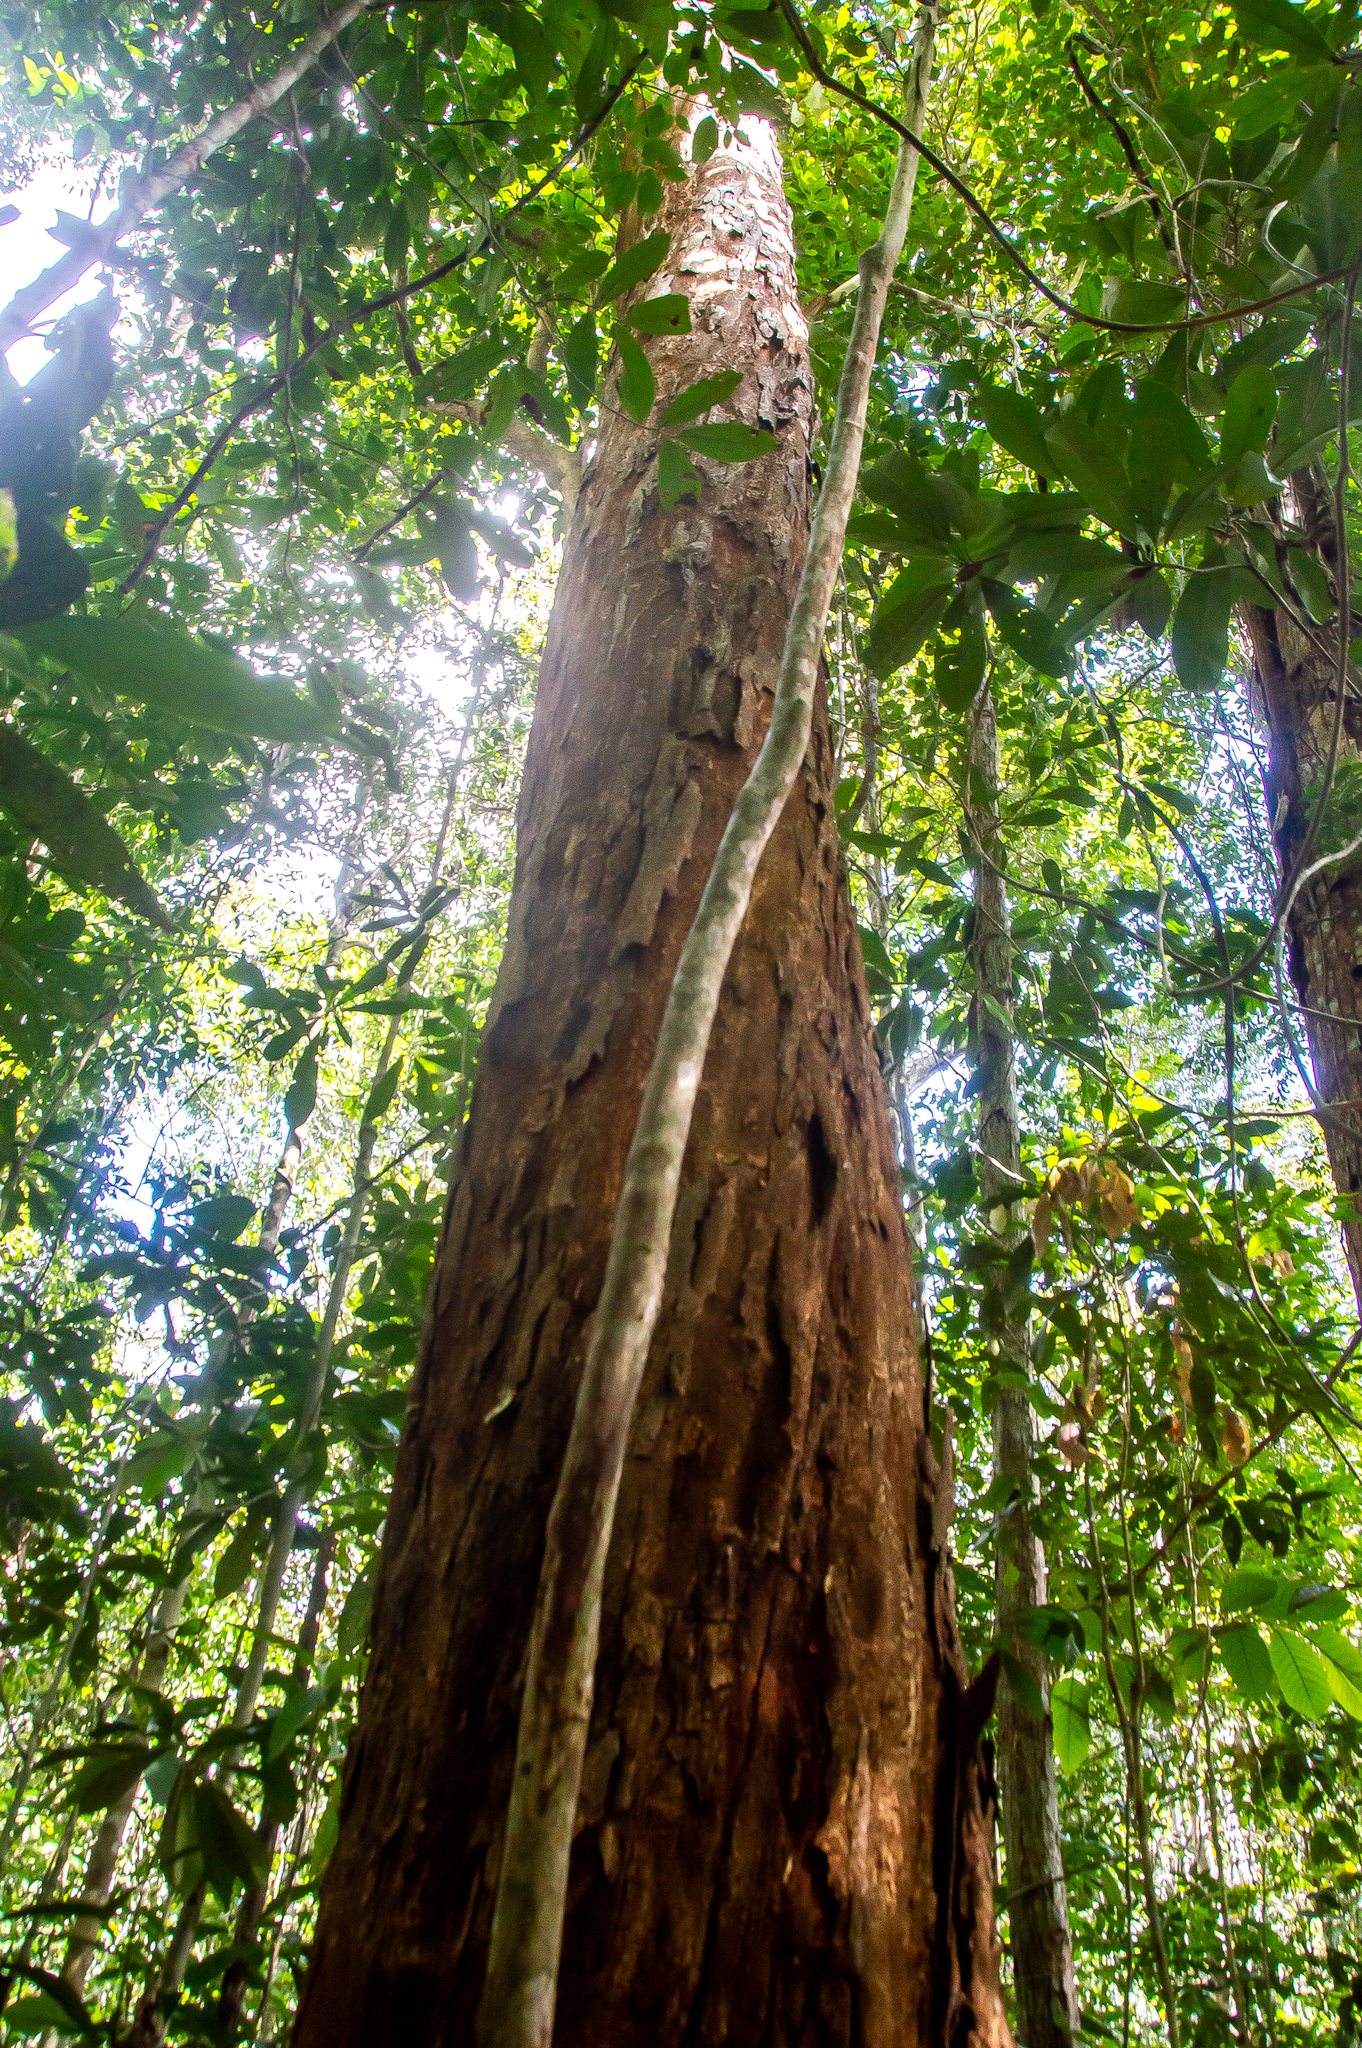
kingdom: Plantae
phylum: Tracheophyta
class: Magnoliopsida
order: Fabales
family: Fabaceae
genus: Paubrasilia
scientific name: Paubrasilia echinata
